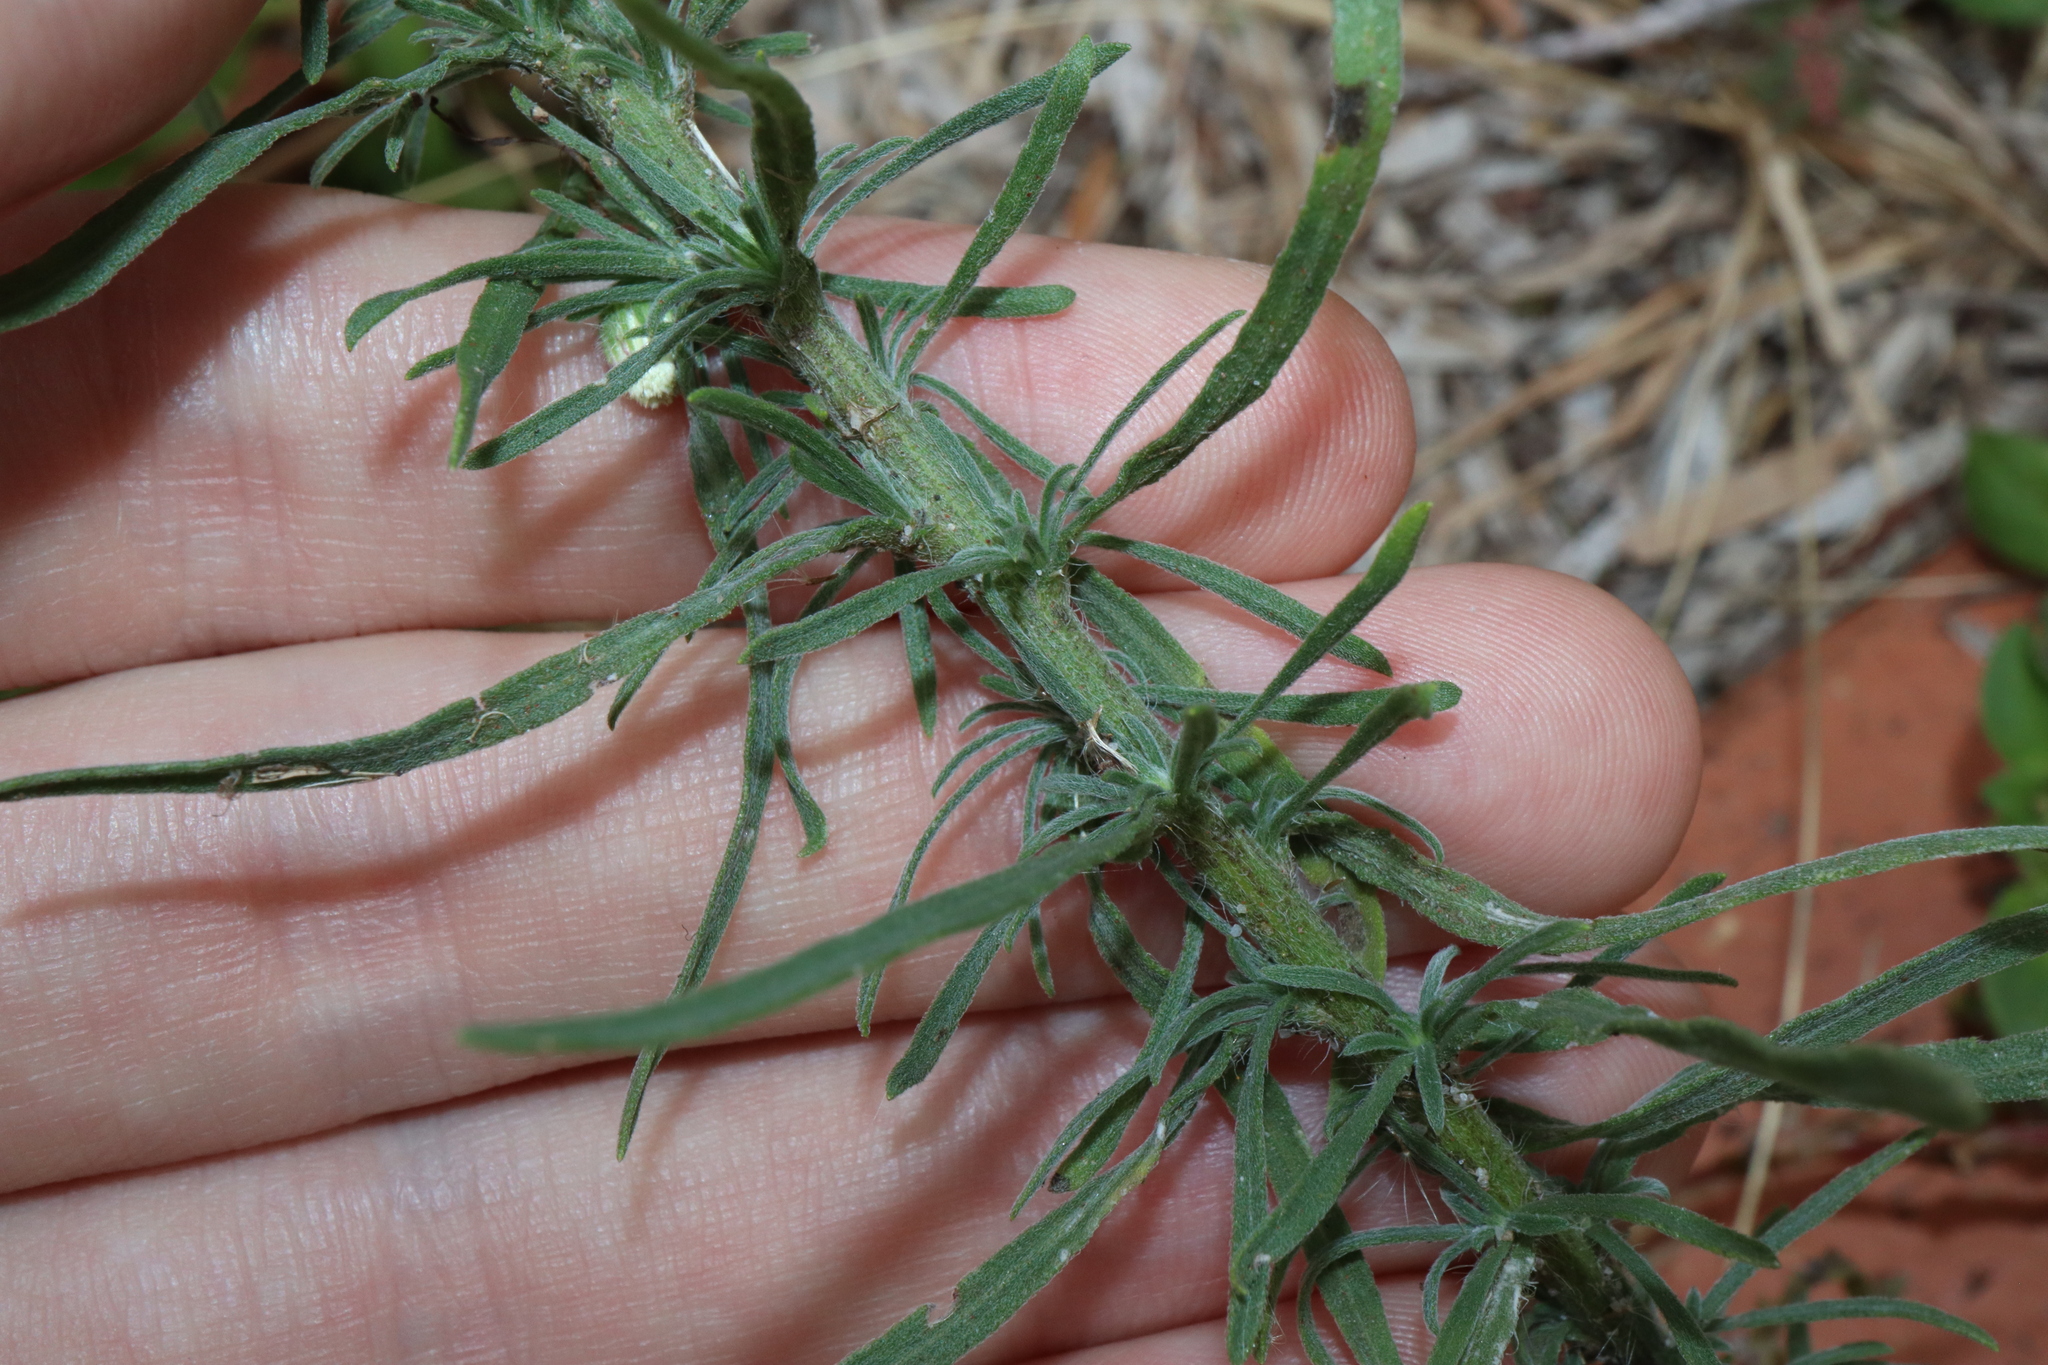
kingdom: Plantae
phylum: Tracheophyta
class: Magnoliopsida
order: Asterales
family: Asteraceae
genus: Erigeron
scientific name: Erigeron bonariensis
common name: Argentine fleabane
